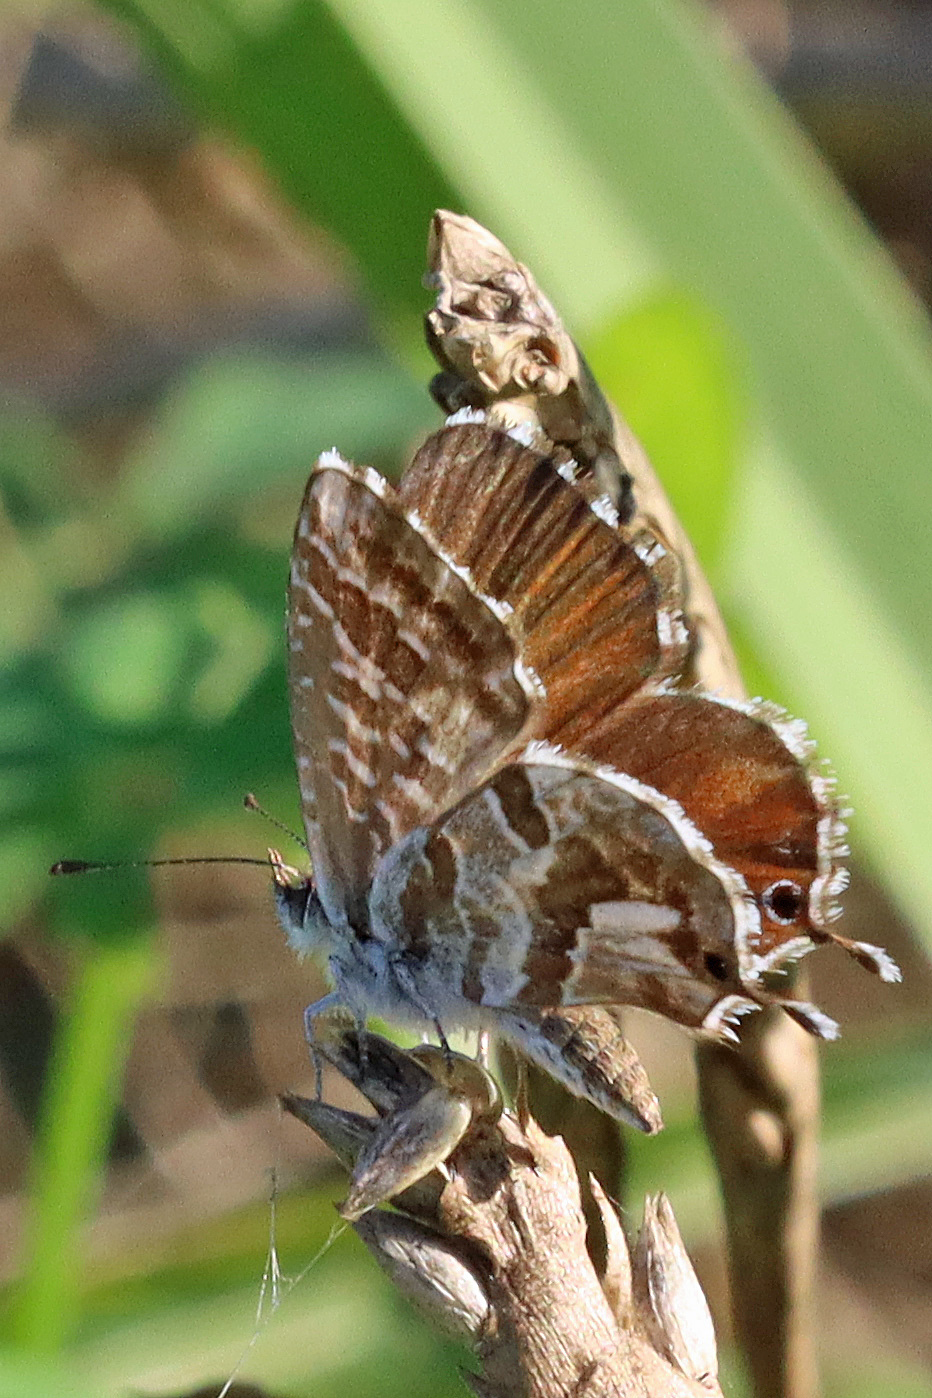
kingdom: Animalia
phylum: Arthropoda
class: Insecta
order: Lepidoptera
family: Lycaenidae
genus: Cacyreus
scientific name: Cacyreus marshalli
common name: Geranium bronze
